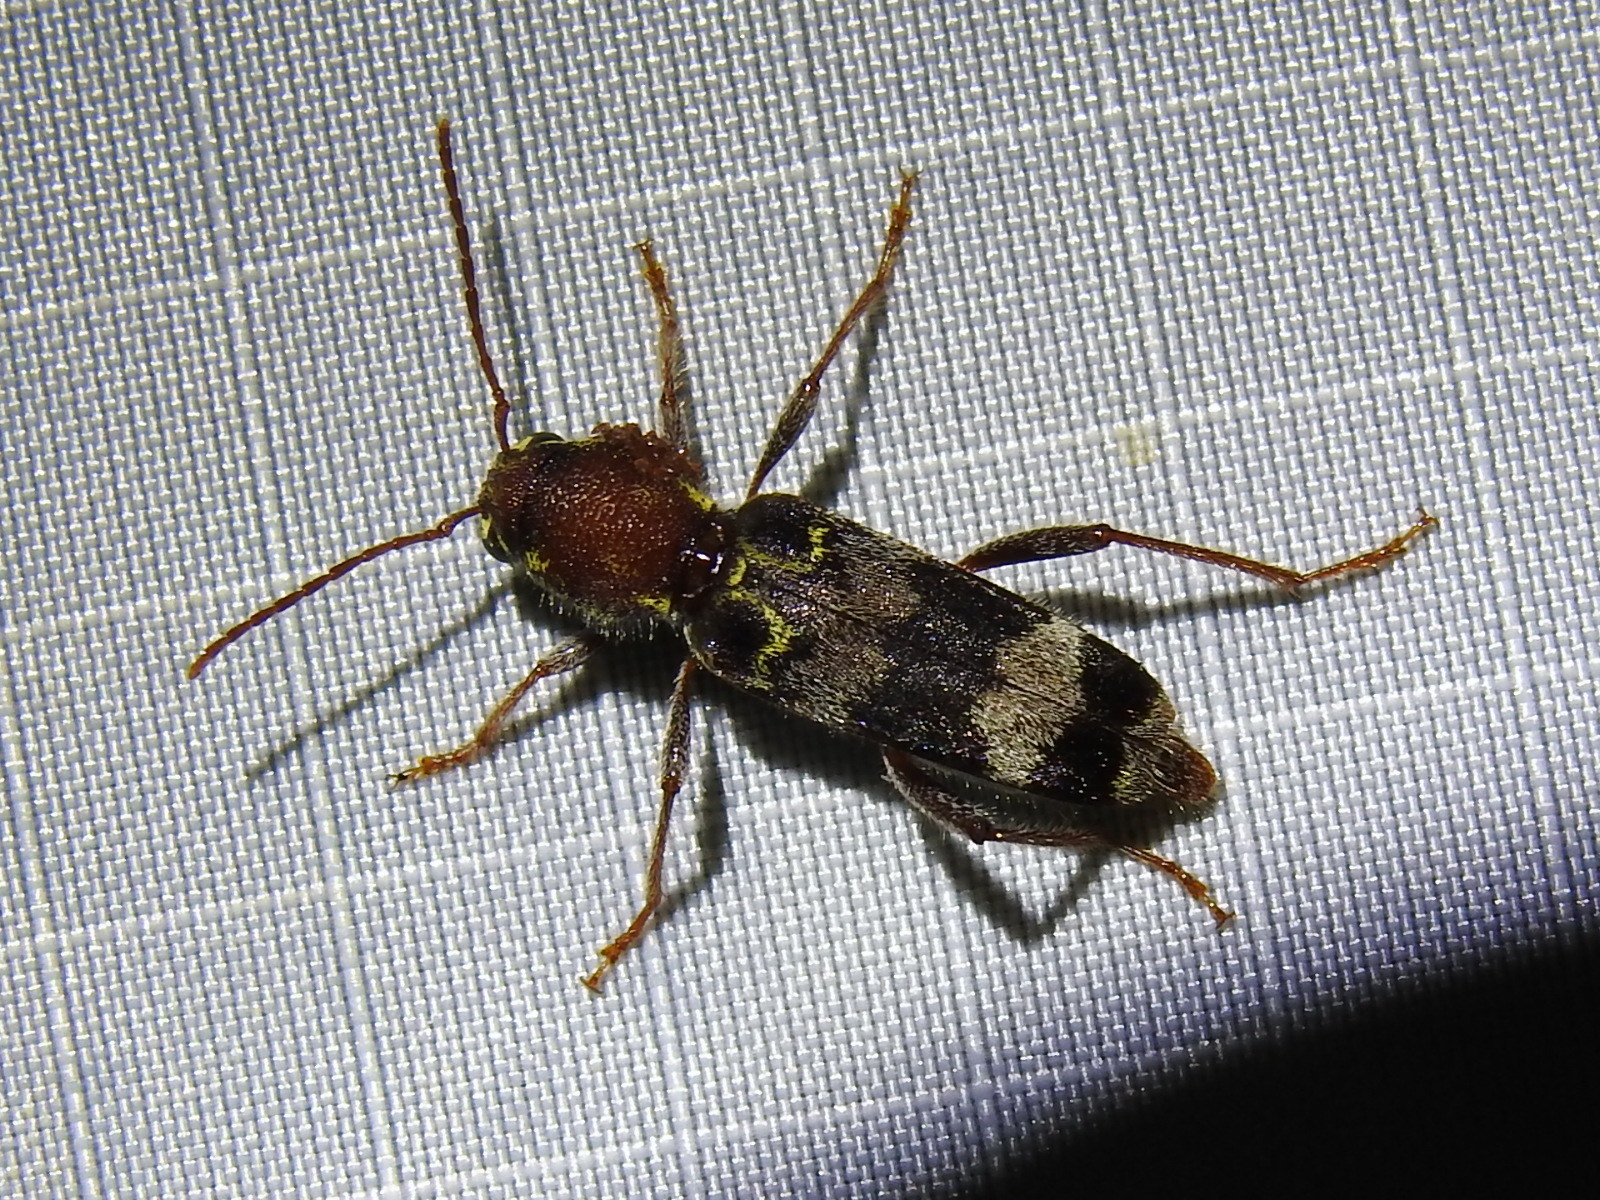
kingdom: Animalia
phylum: Arthropoda
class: Insecta
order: Coleoptera
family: Cerambycidae
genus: Xylotrechus
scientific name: Xylotrechus colonus
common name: Long-horned beetle
